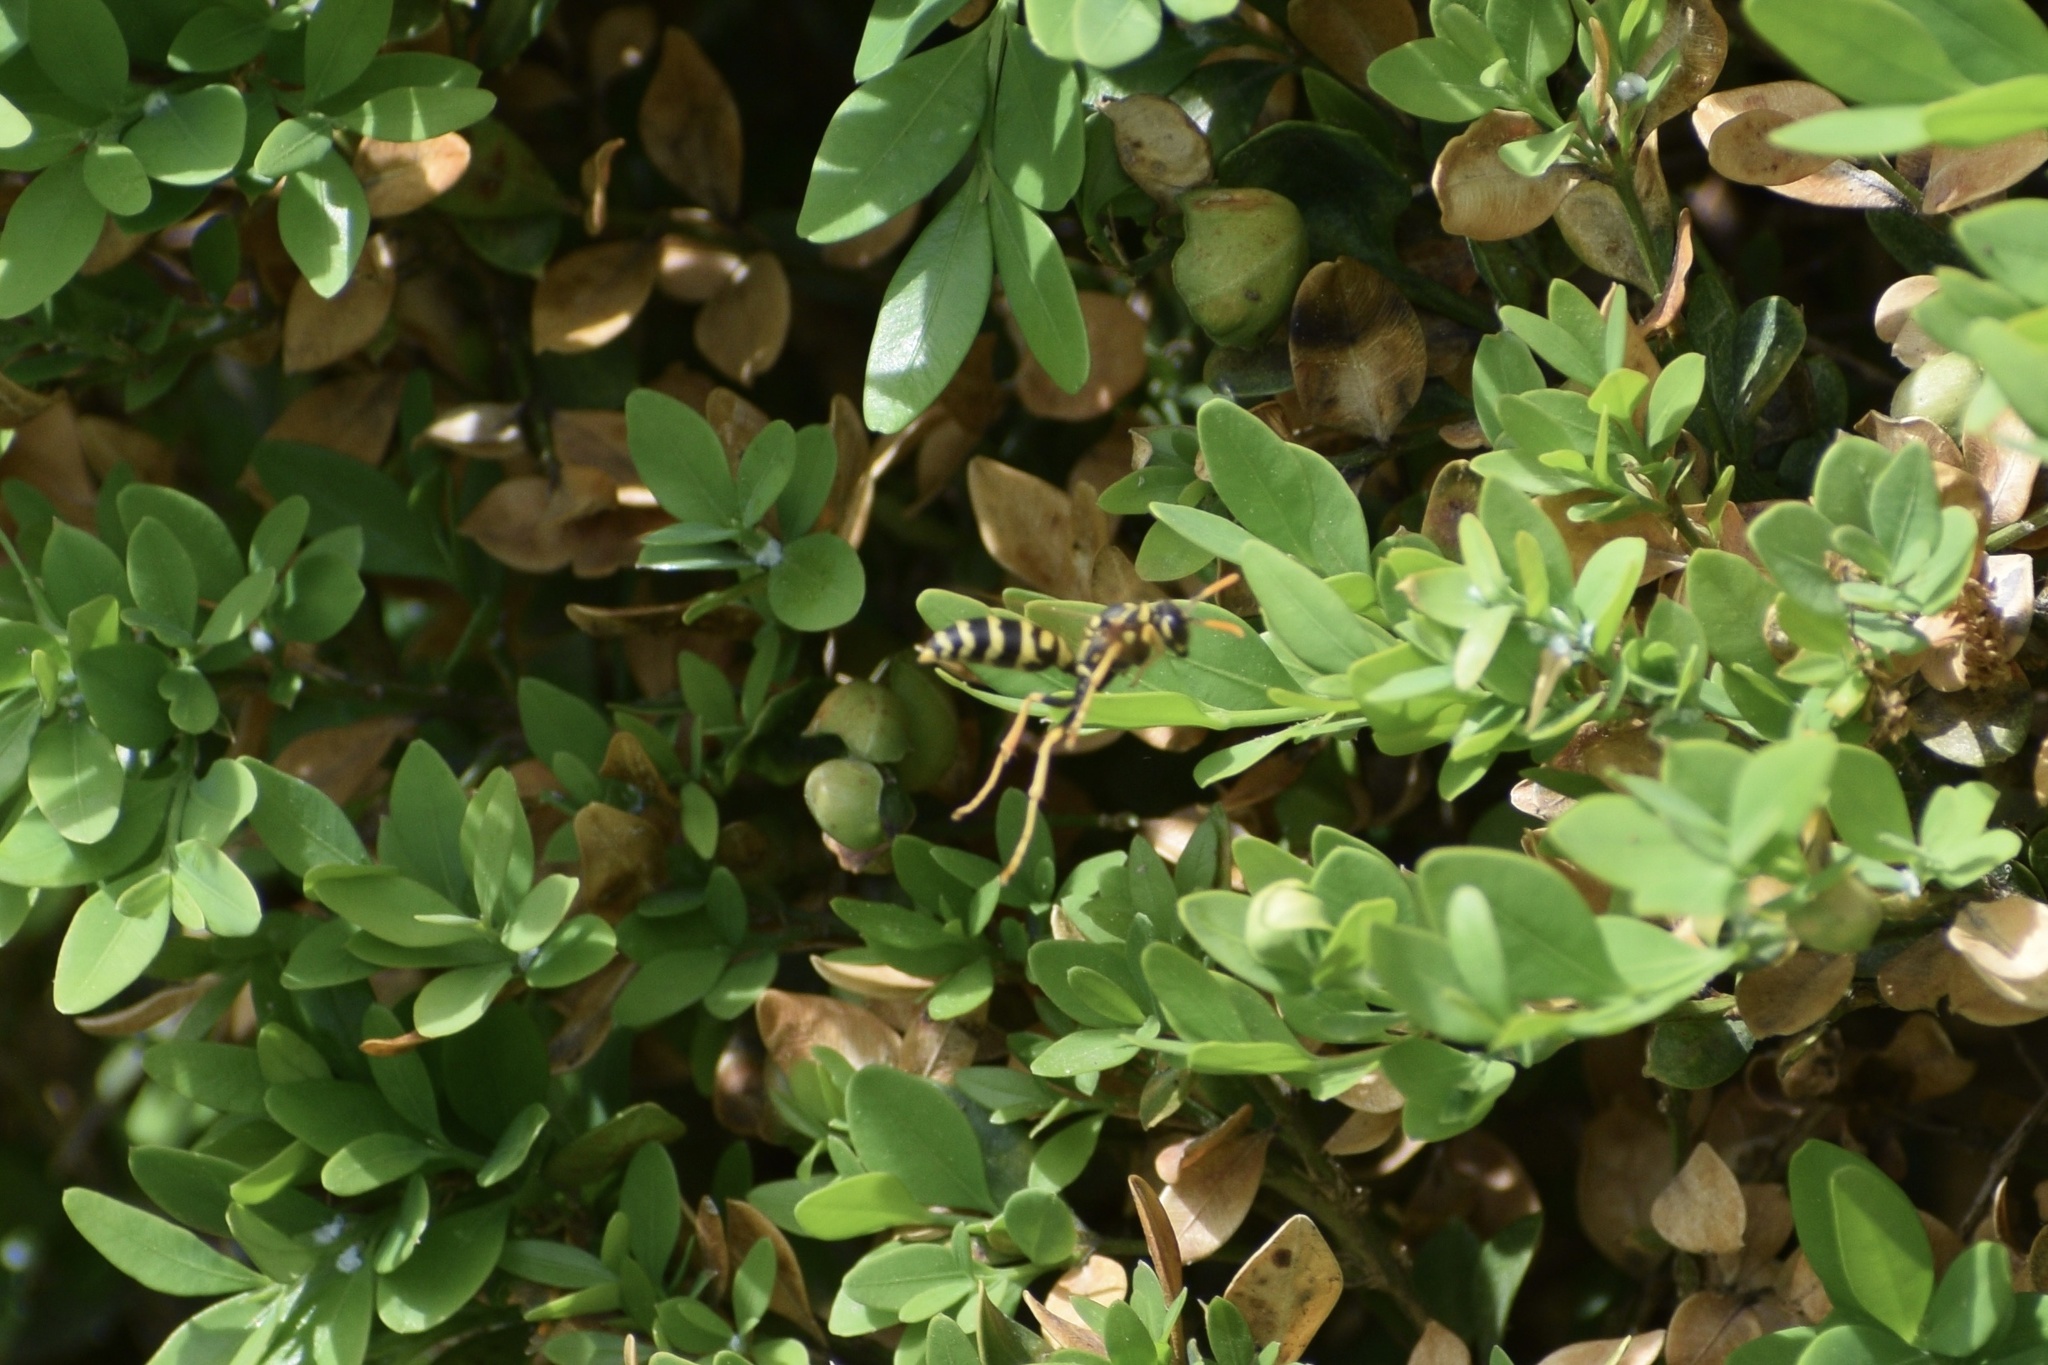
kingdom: Animalia
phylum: Arthropoda
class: Insecta
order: Hymenoptera
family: Eumenidae
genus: Polistes
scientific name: Polistes dominula
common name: Paper wasp
